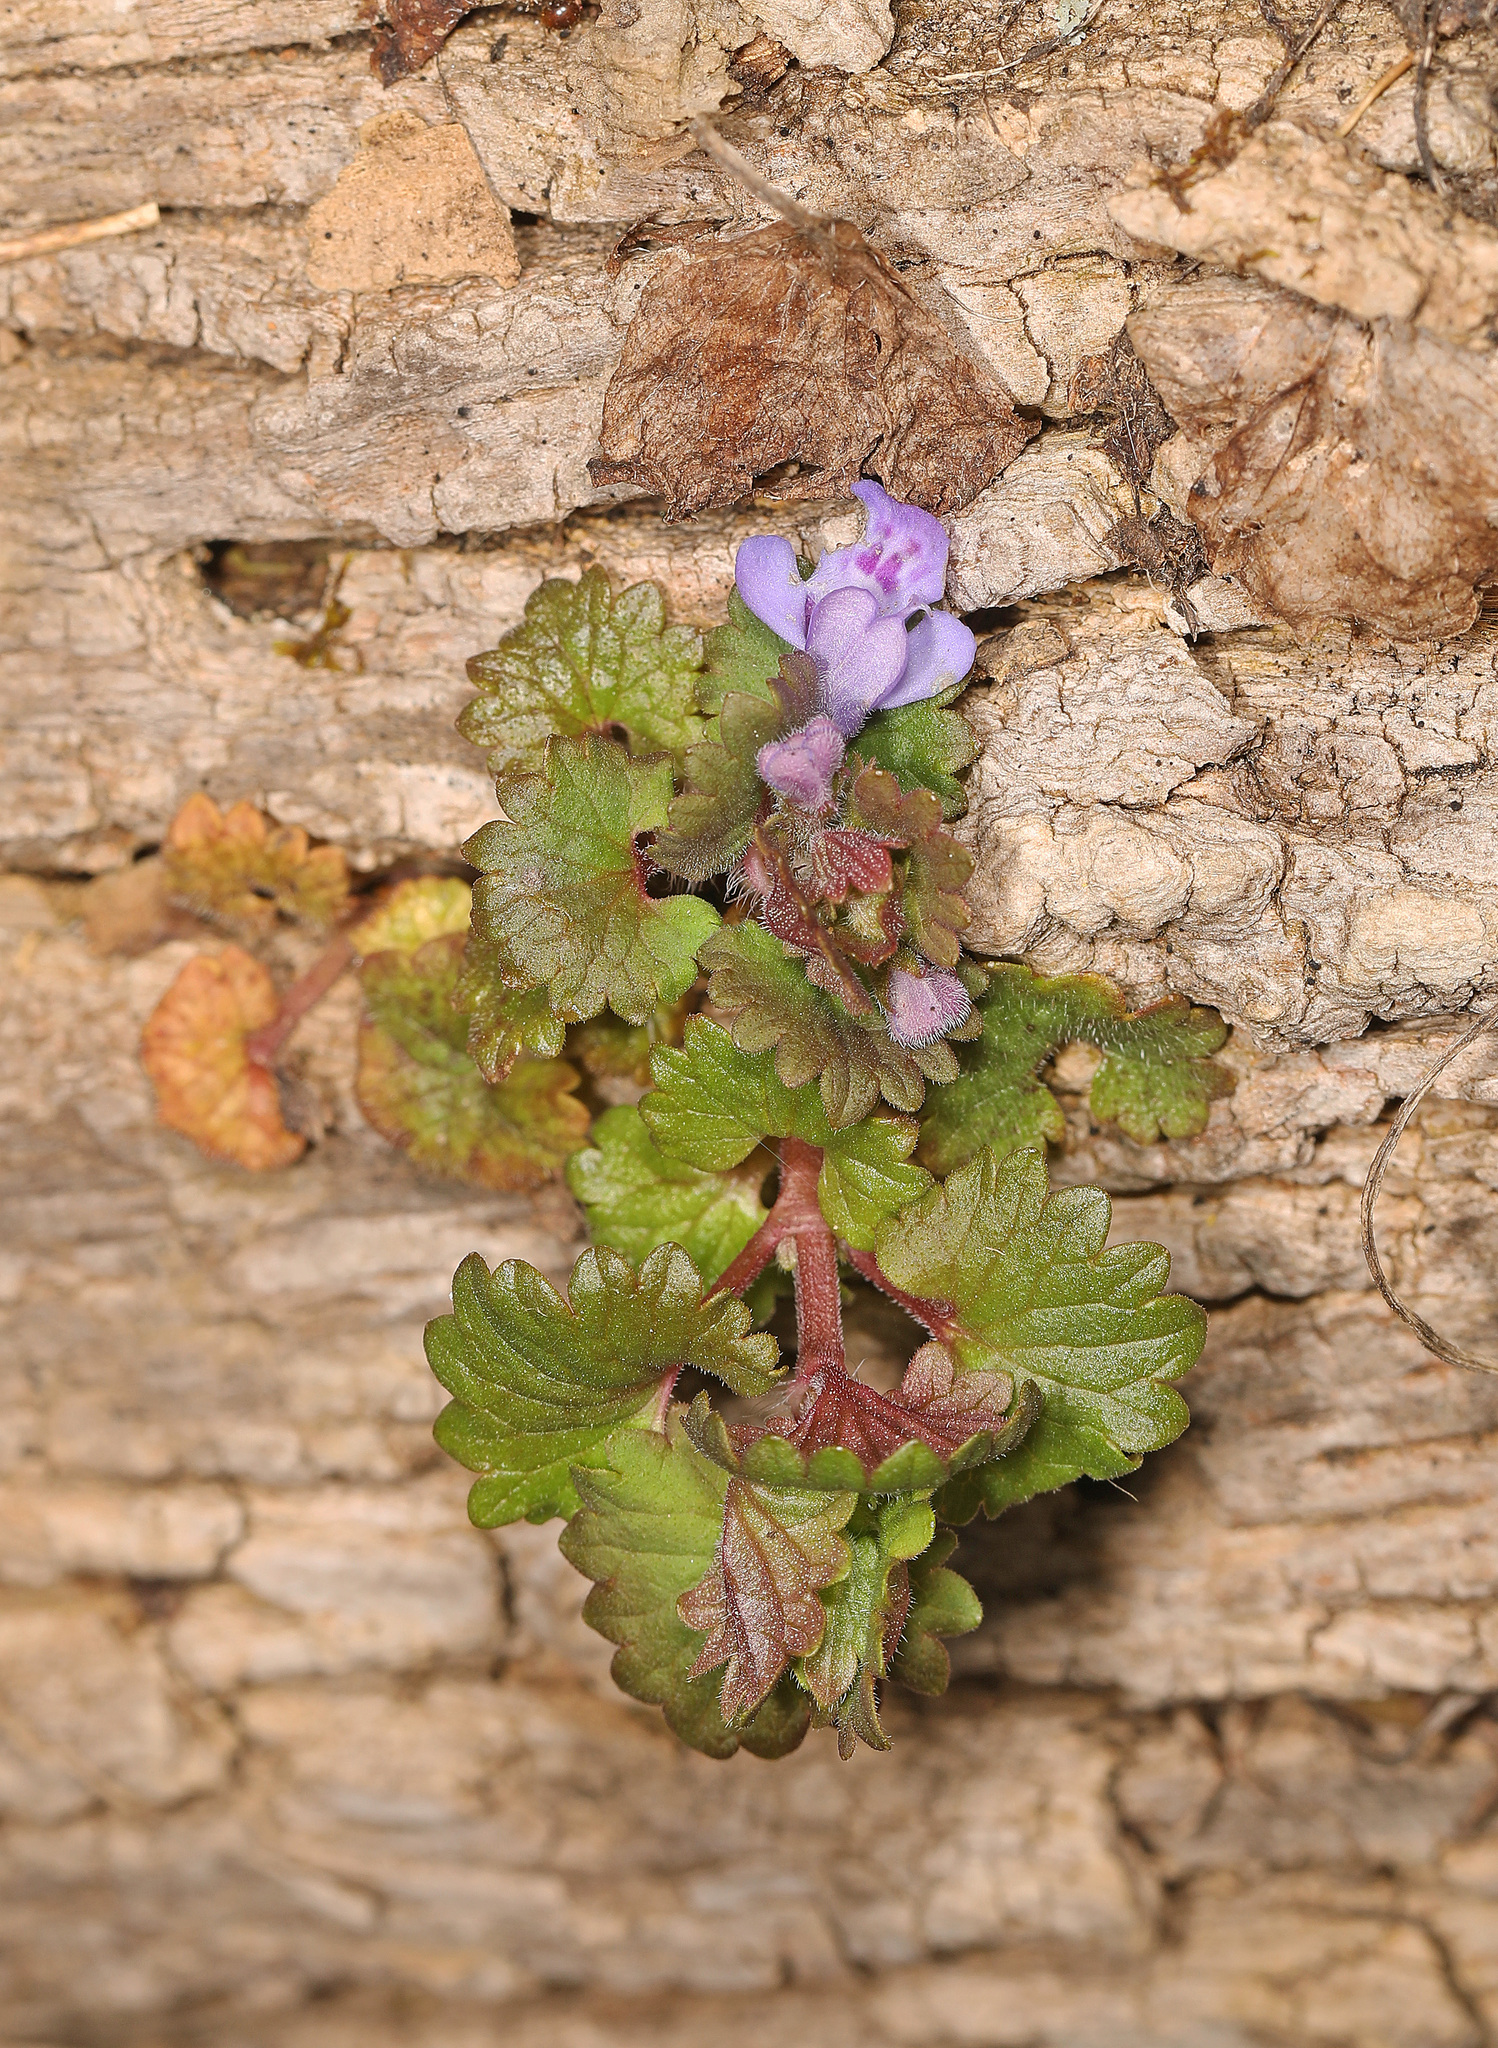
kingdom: Plantae
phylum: Tracheophyta
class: Magnoliopsida
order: Lamiales
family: Lamiaceae
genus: Glechoma
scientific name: Glechoma hederacea
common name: Ground ivy
